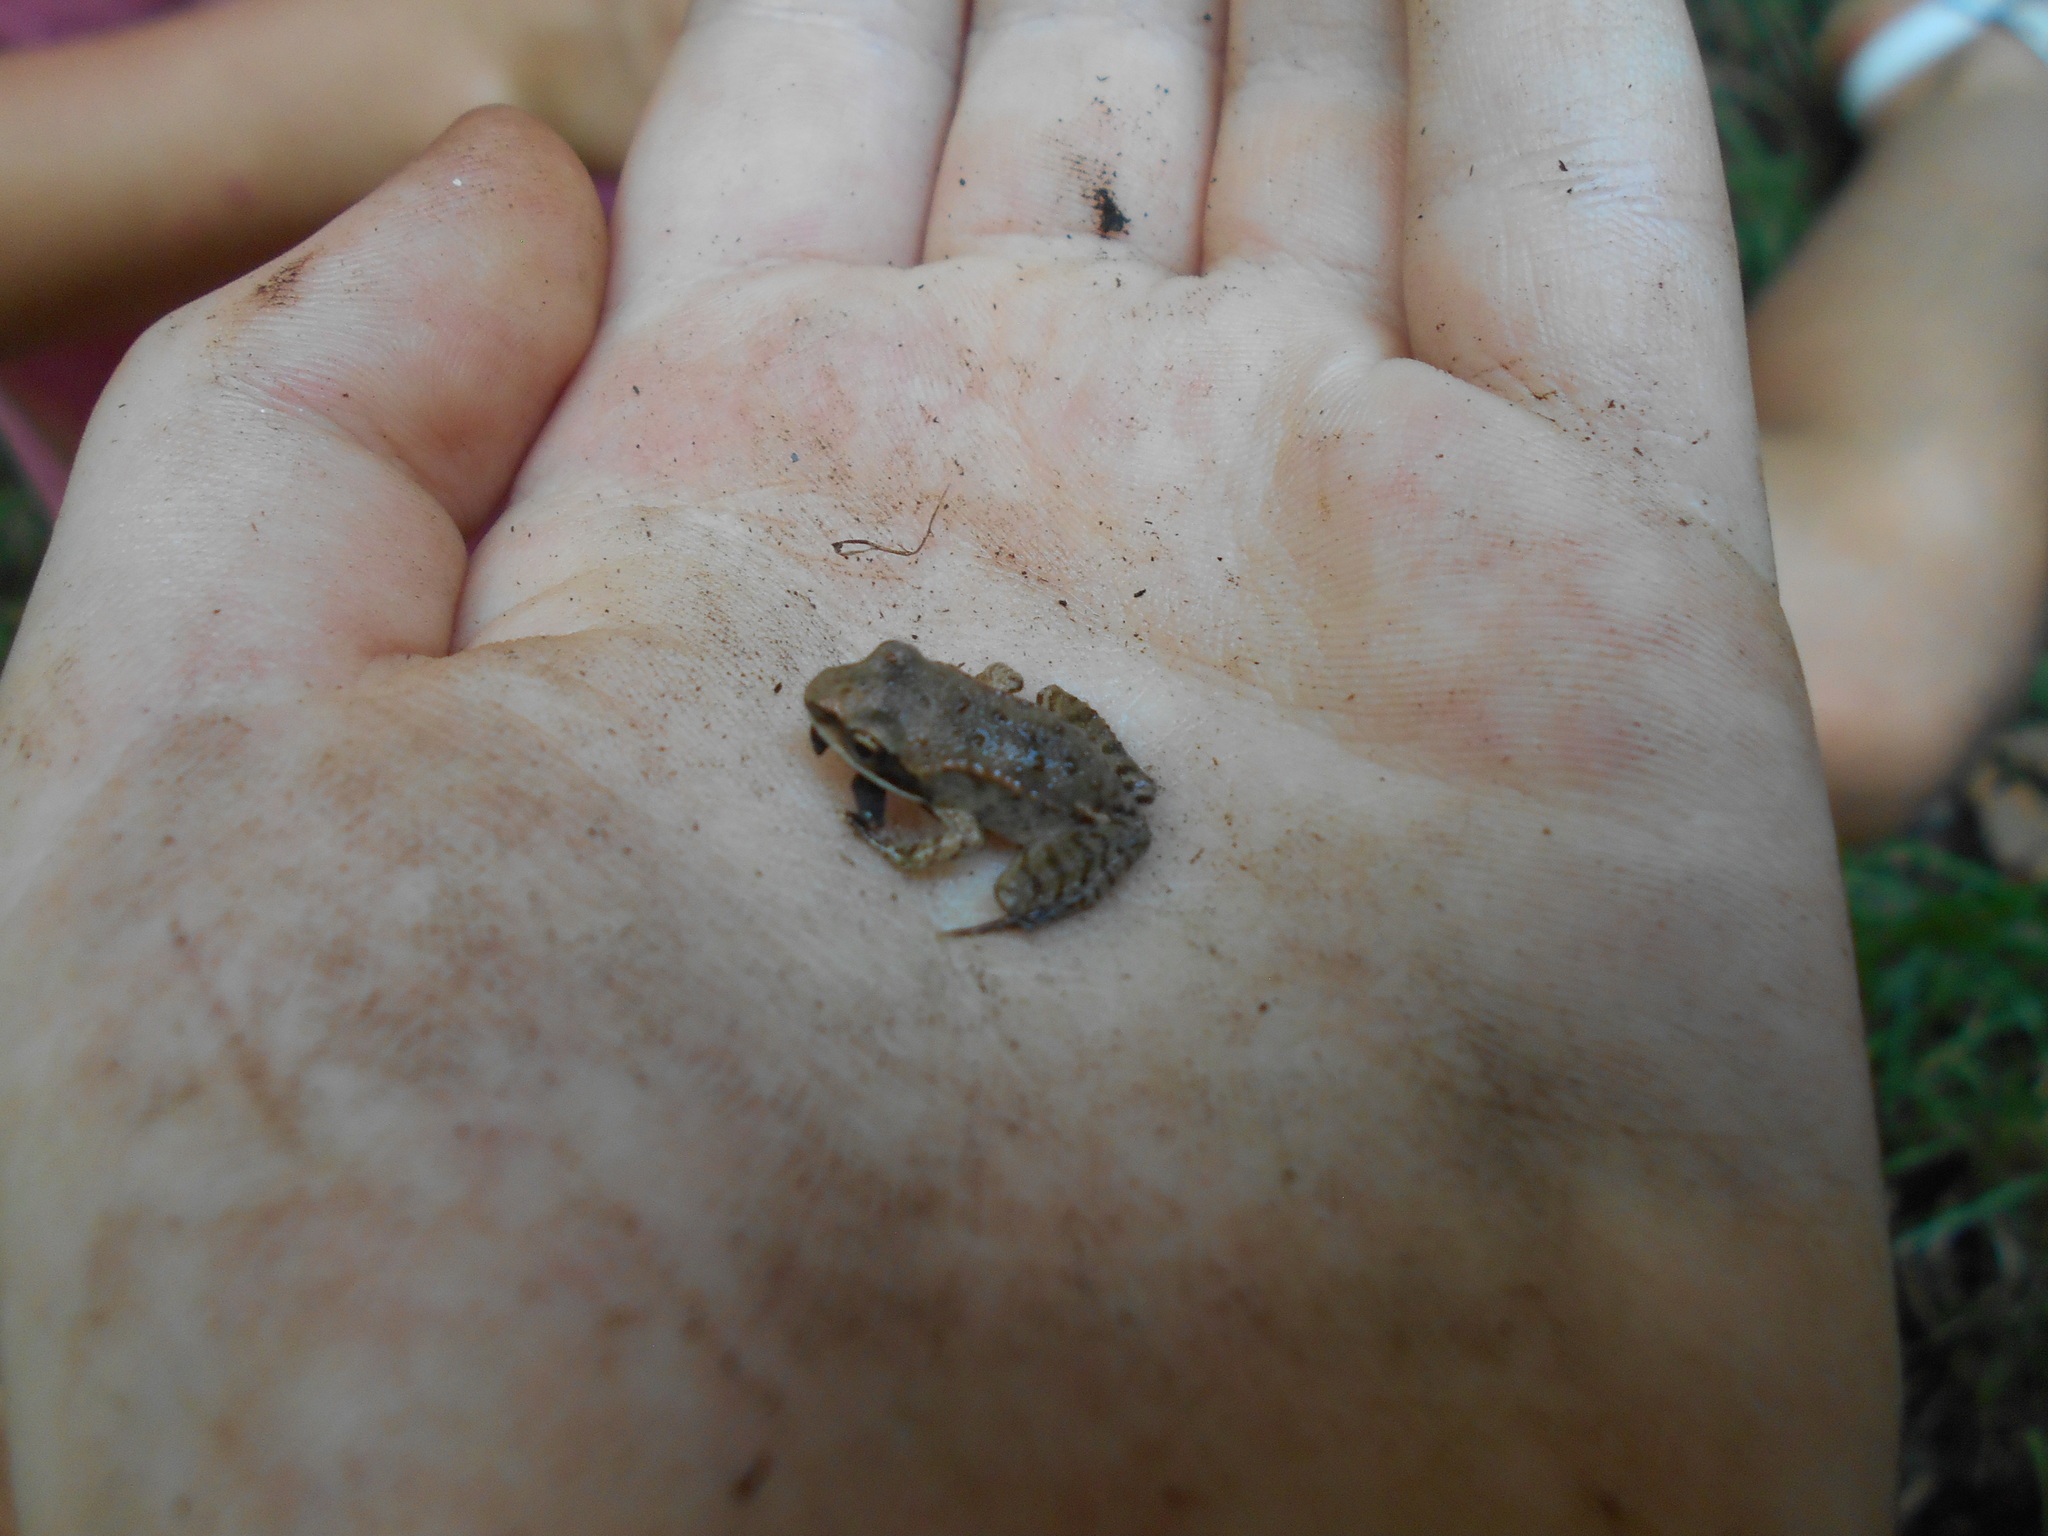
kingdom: Animalia
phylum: Chordata
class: Amphibia
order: Anura
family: Ranidae
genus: Lithobates
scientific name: Lithobates sylvaticus
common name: Wood frog
